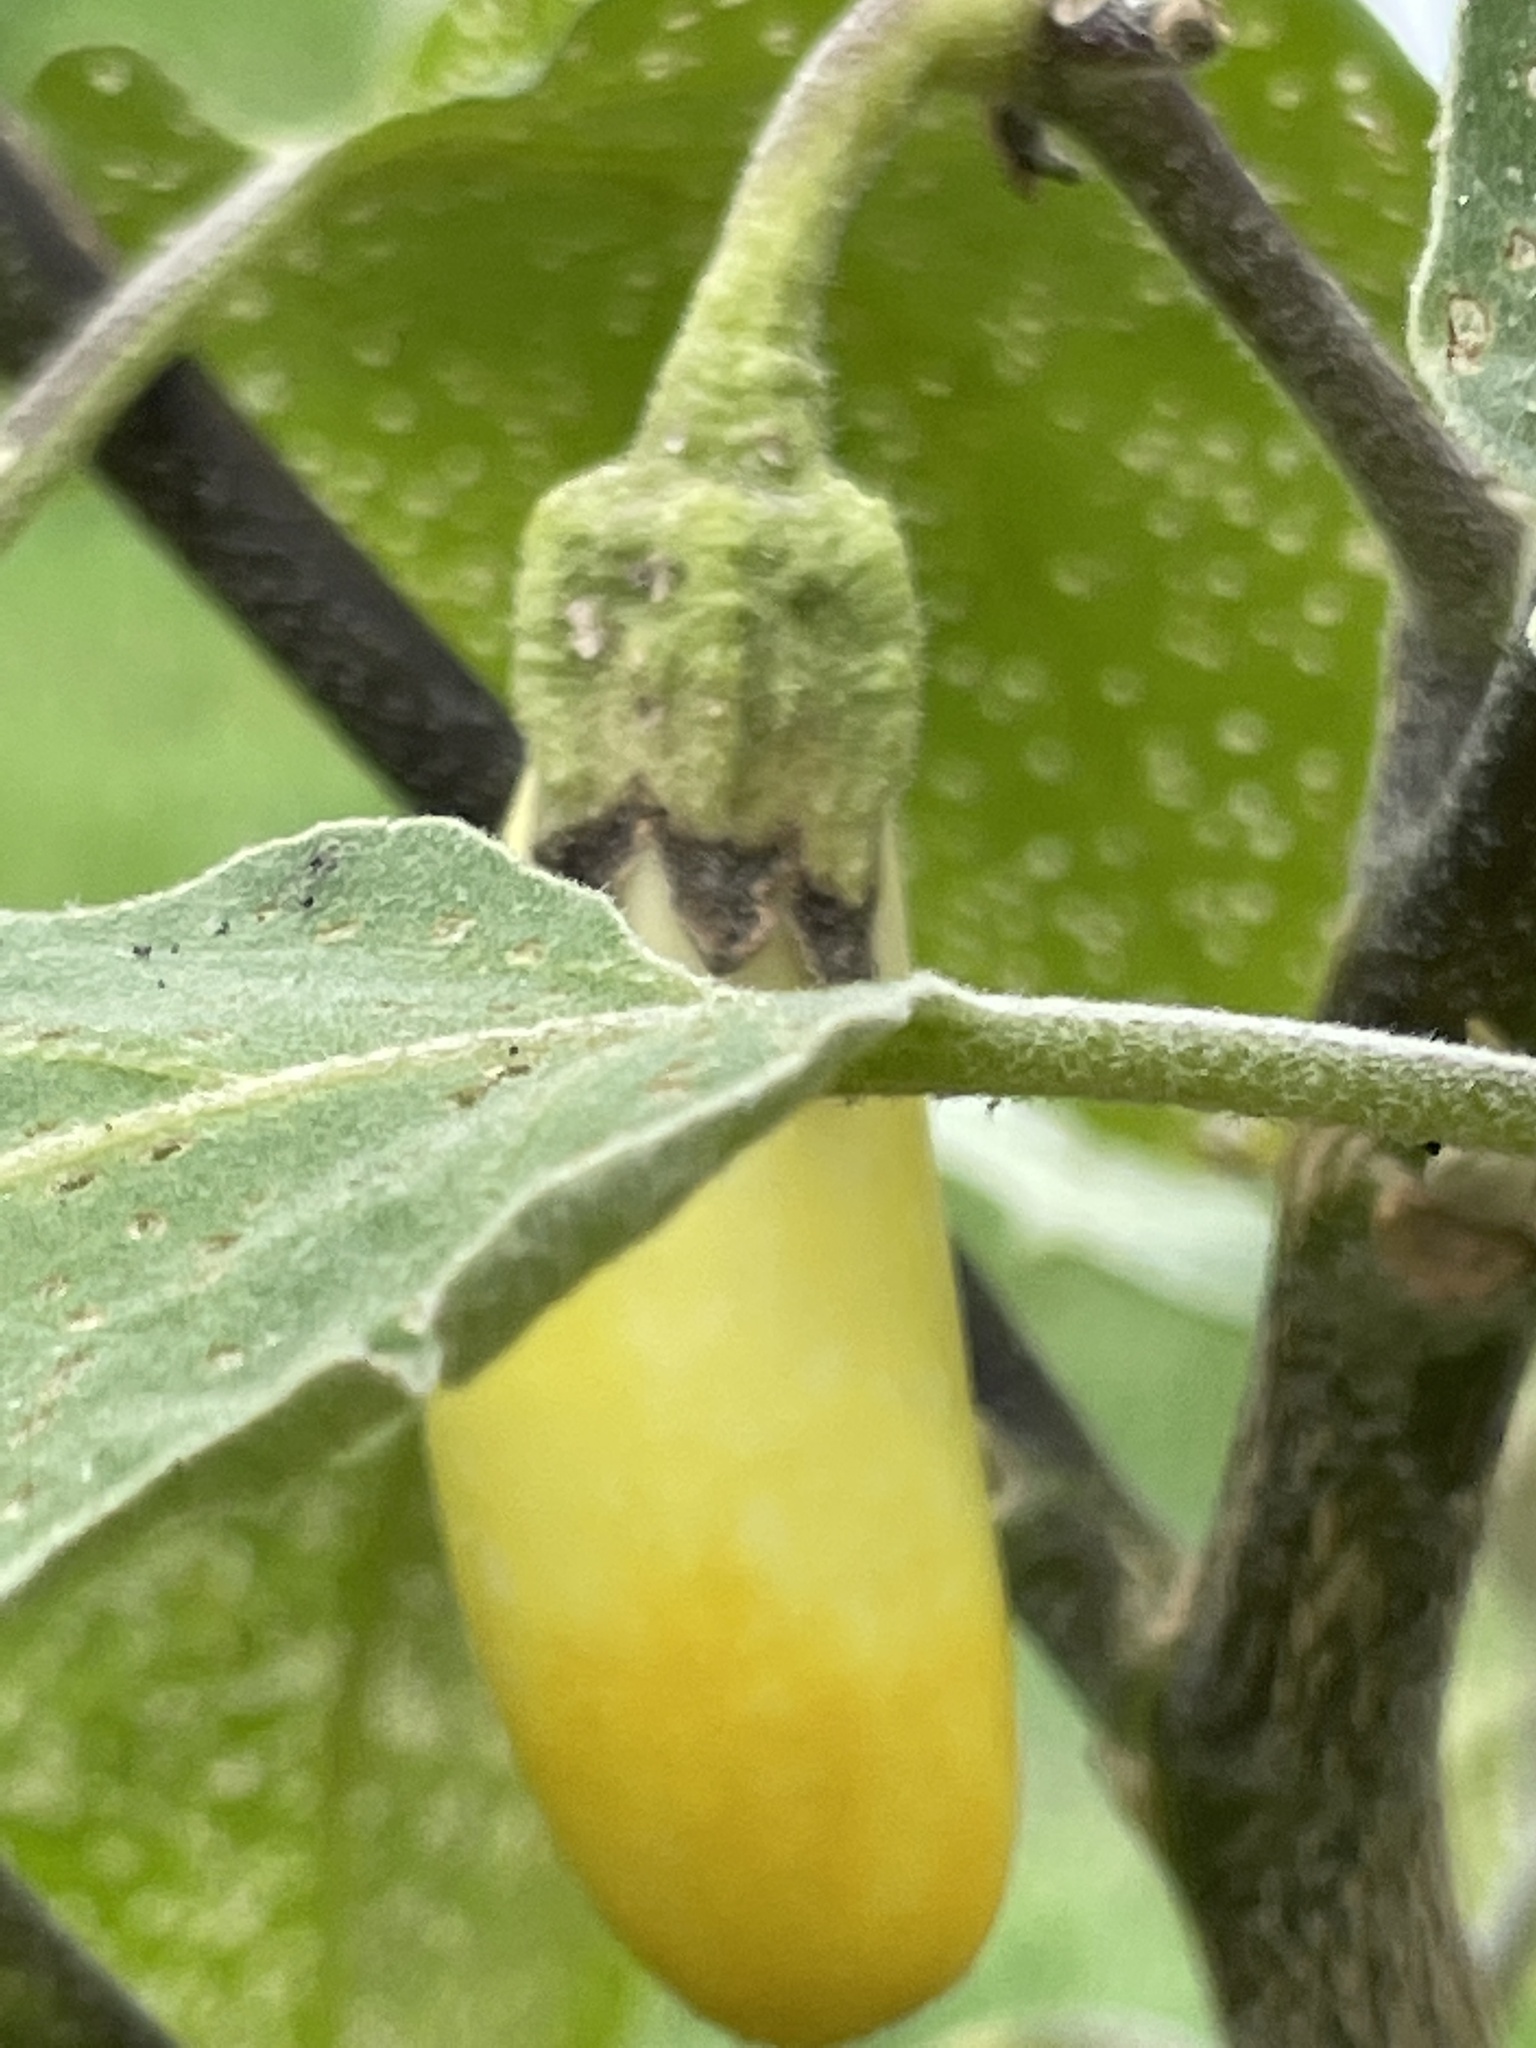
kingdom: Plantae
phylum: Tracheophyta
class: Magnoliopsida
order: Solanales
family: Solanaceae
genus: Solanum
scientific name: Solanum melongena
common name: Eggplant
